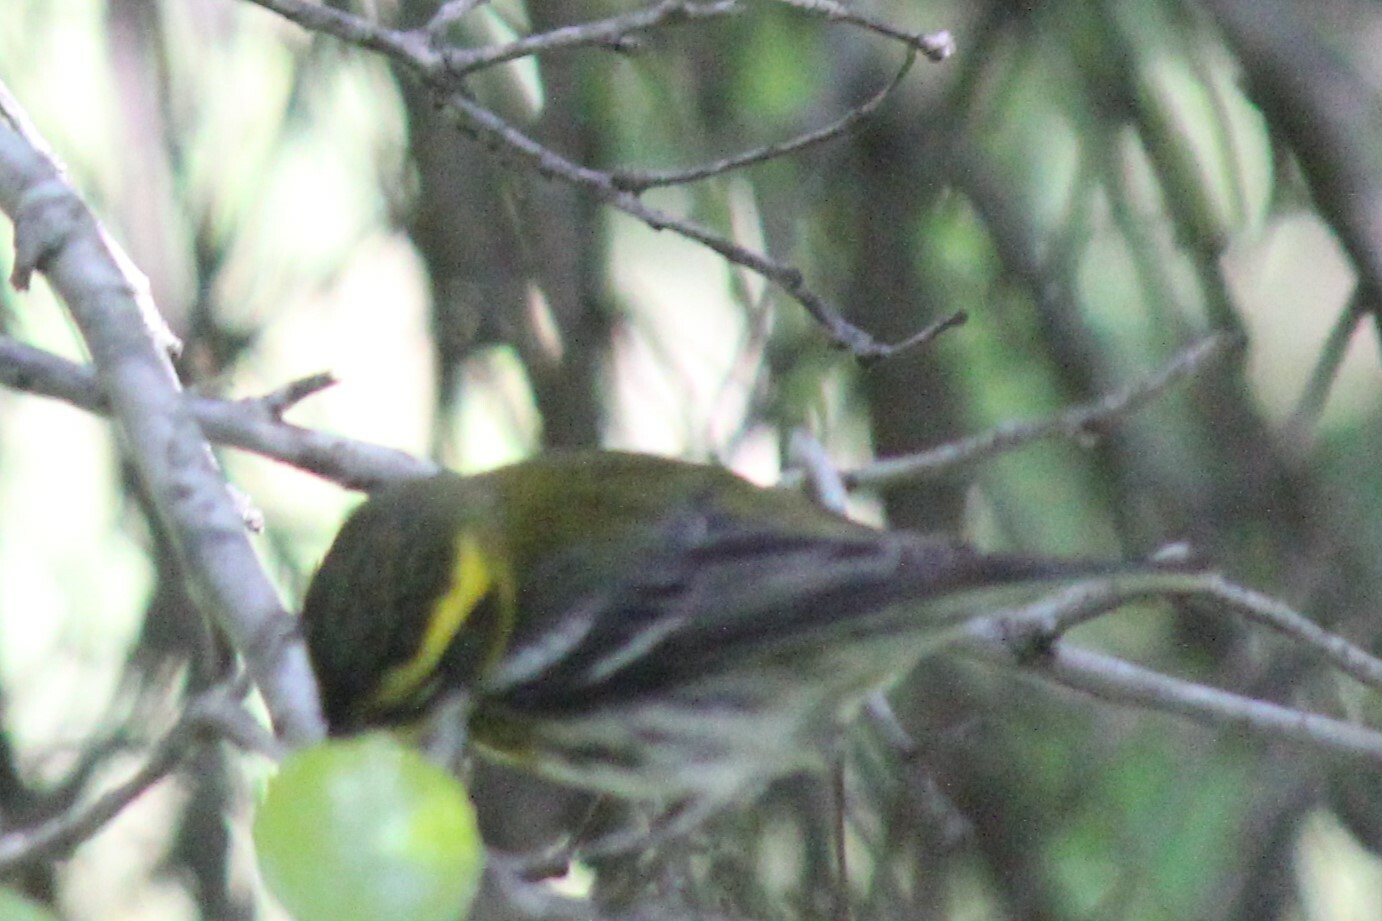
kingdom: Animalia
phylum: Chordata
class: Aves
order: Passeriformes
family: Parulidae
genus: Setophaga
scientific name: Setophaga townsendi
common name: Townsend's warbler
